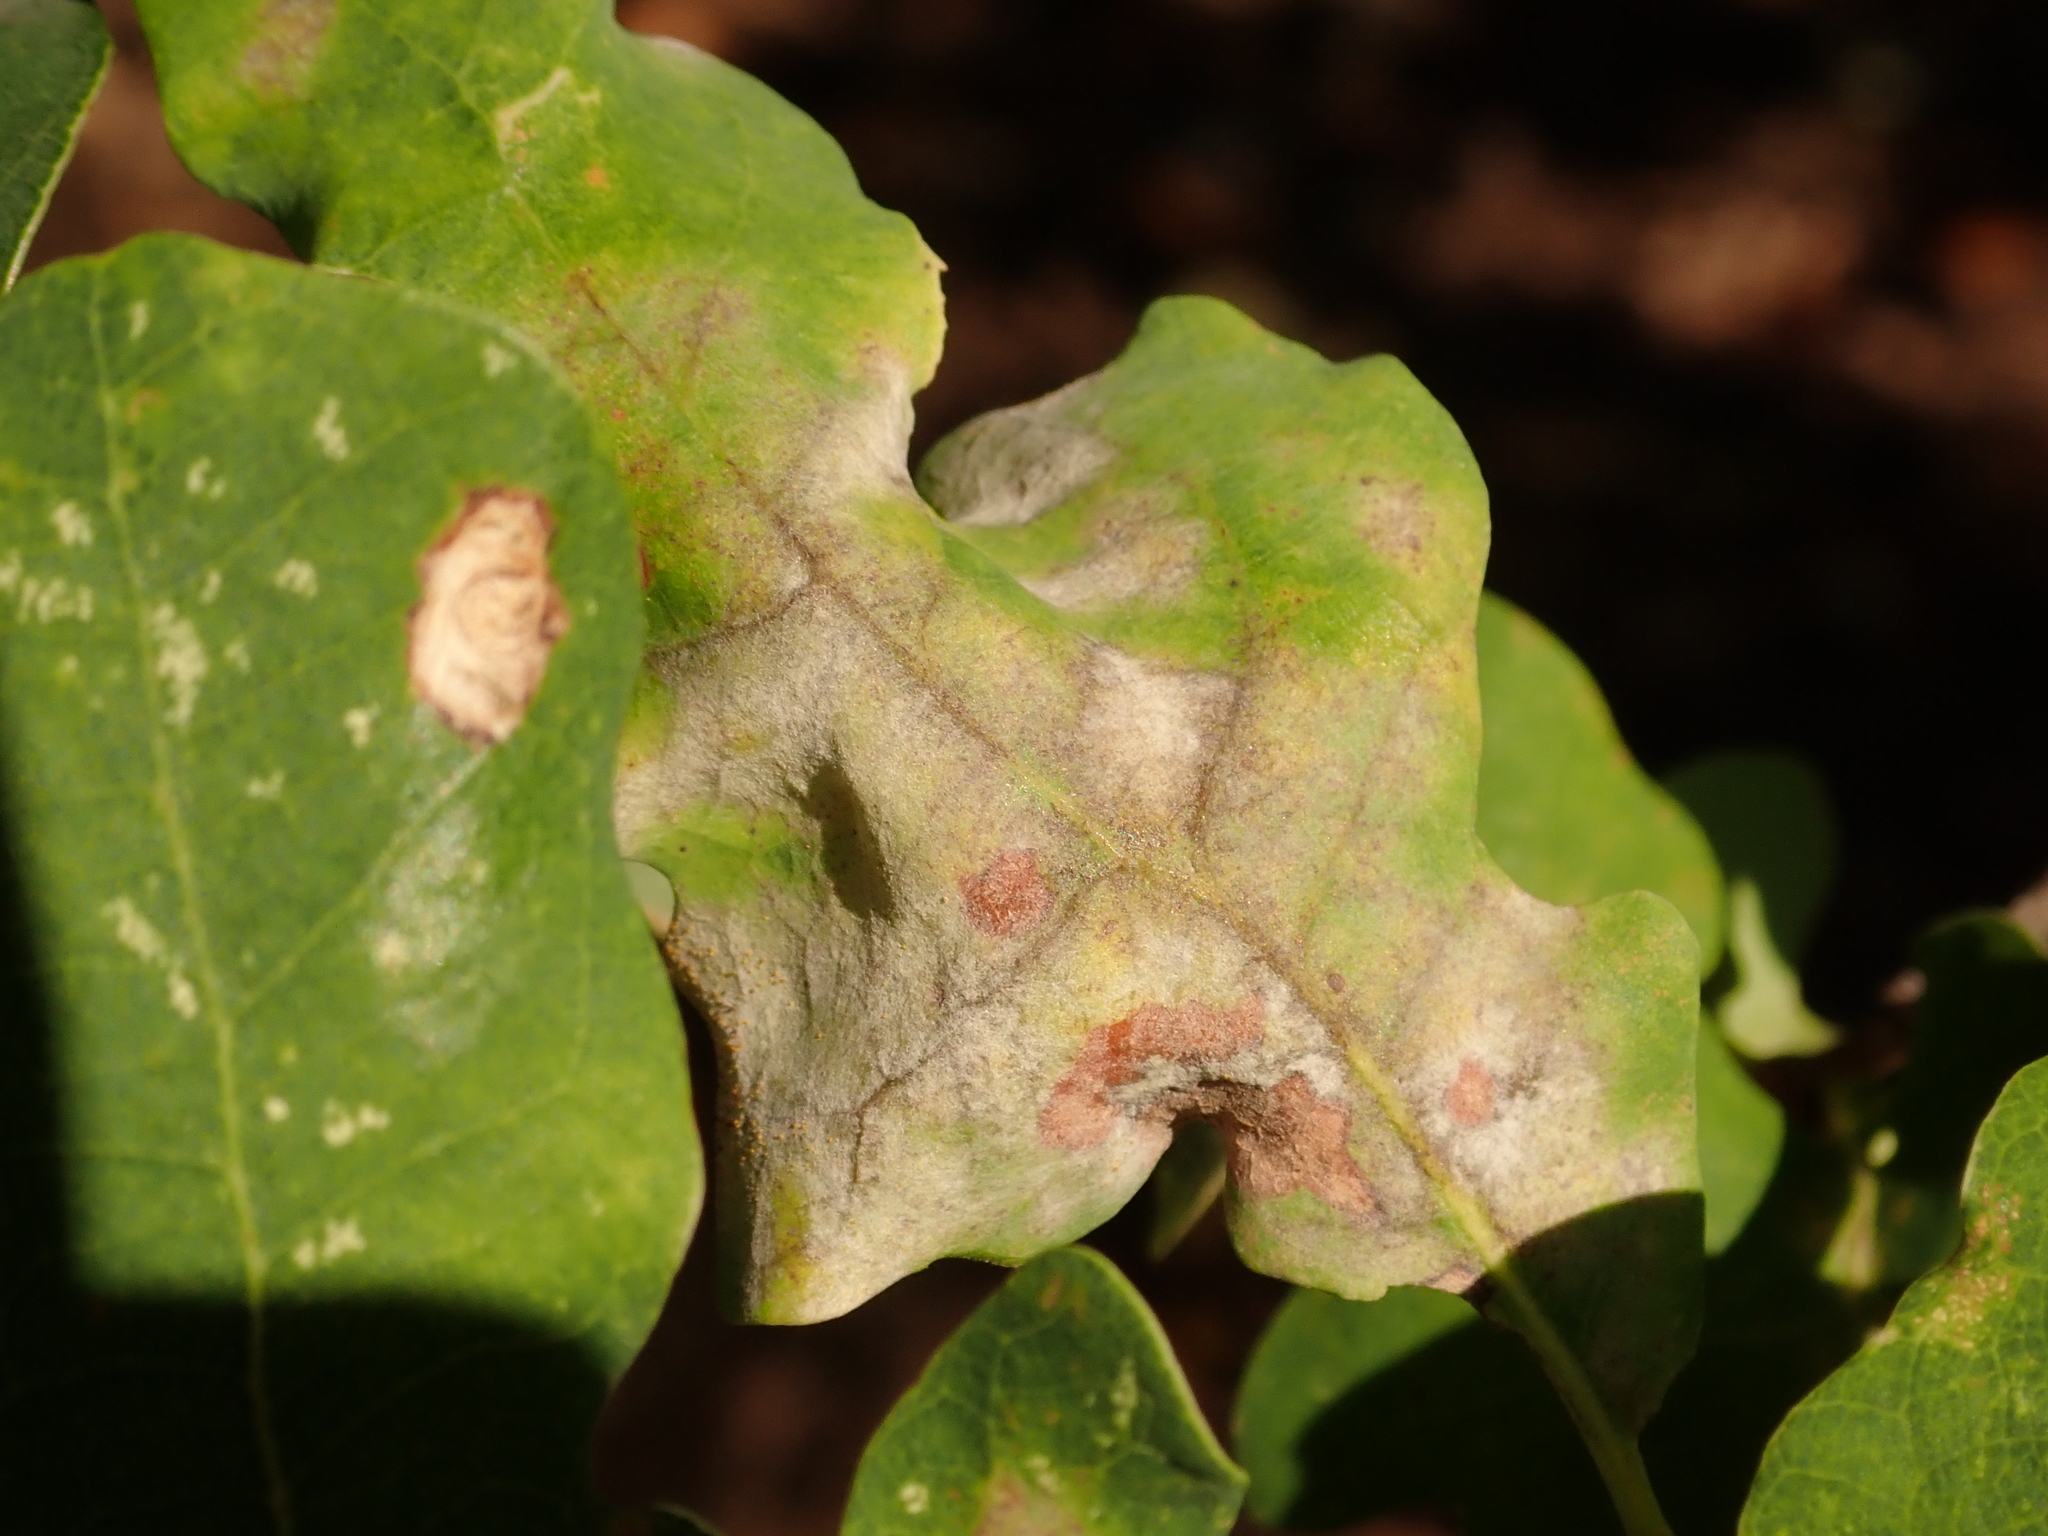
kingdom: Fungi
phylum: Ascomycota
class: Leotiomycetes
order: Helotiales
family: Erysiphaceae
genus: Erysiphe
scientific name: Erysiphe
